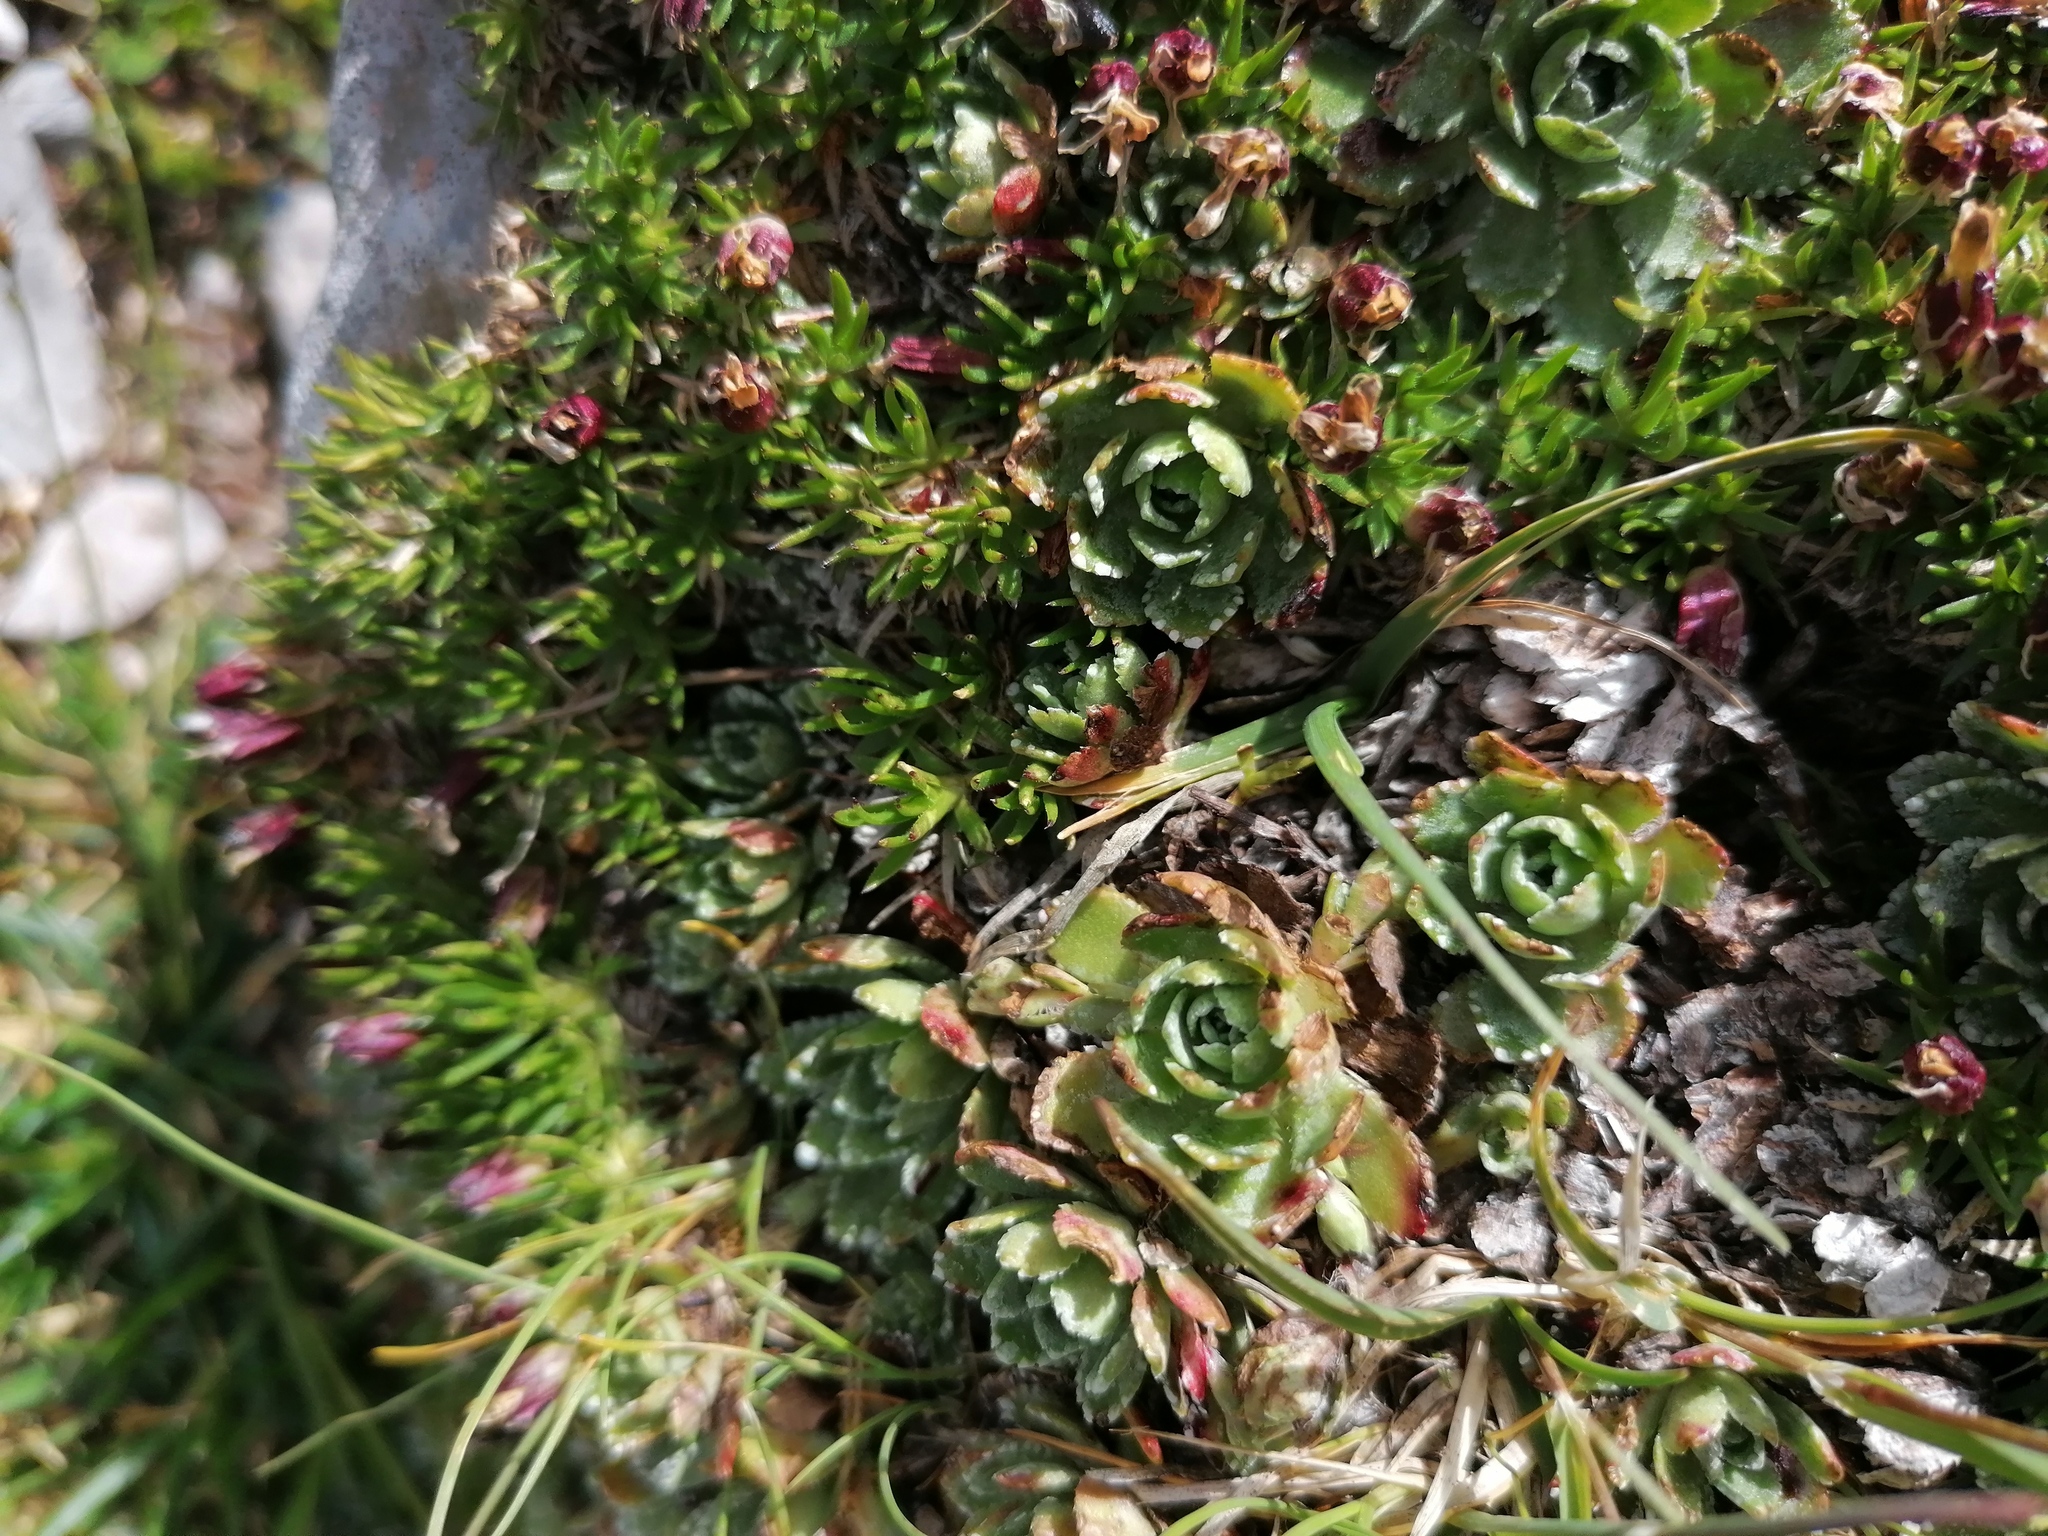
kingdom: Plantae
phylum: Tracheophyta
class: Magnoliopsida
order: Saxifragales
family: Saxifragaceae
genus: Saxifraga
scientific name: Saxifraga paniculata
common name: Livelong saxifrage
